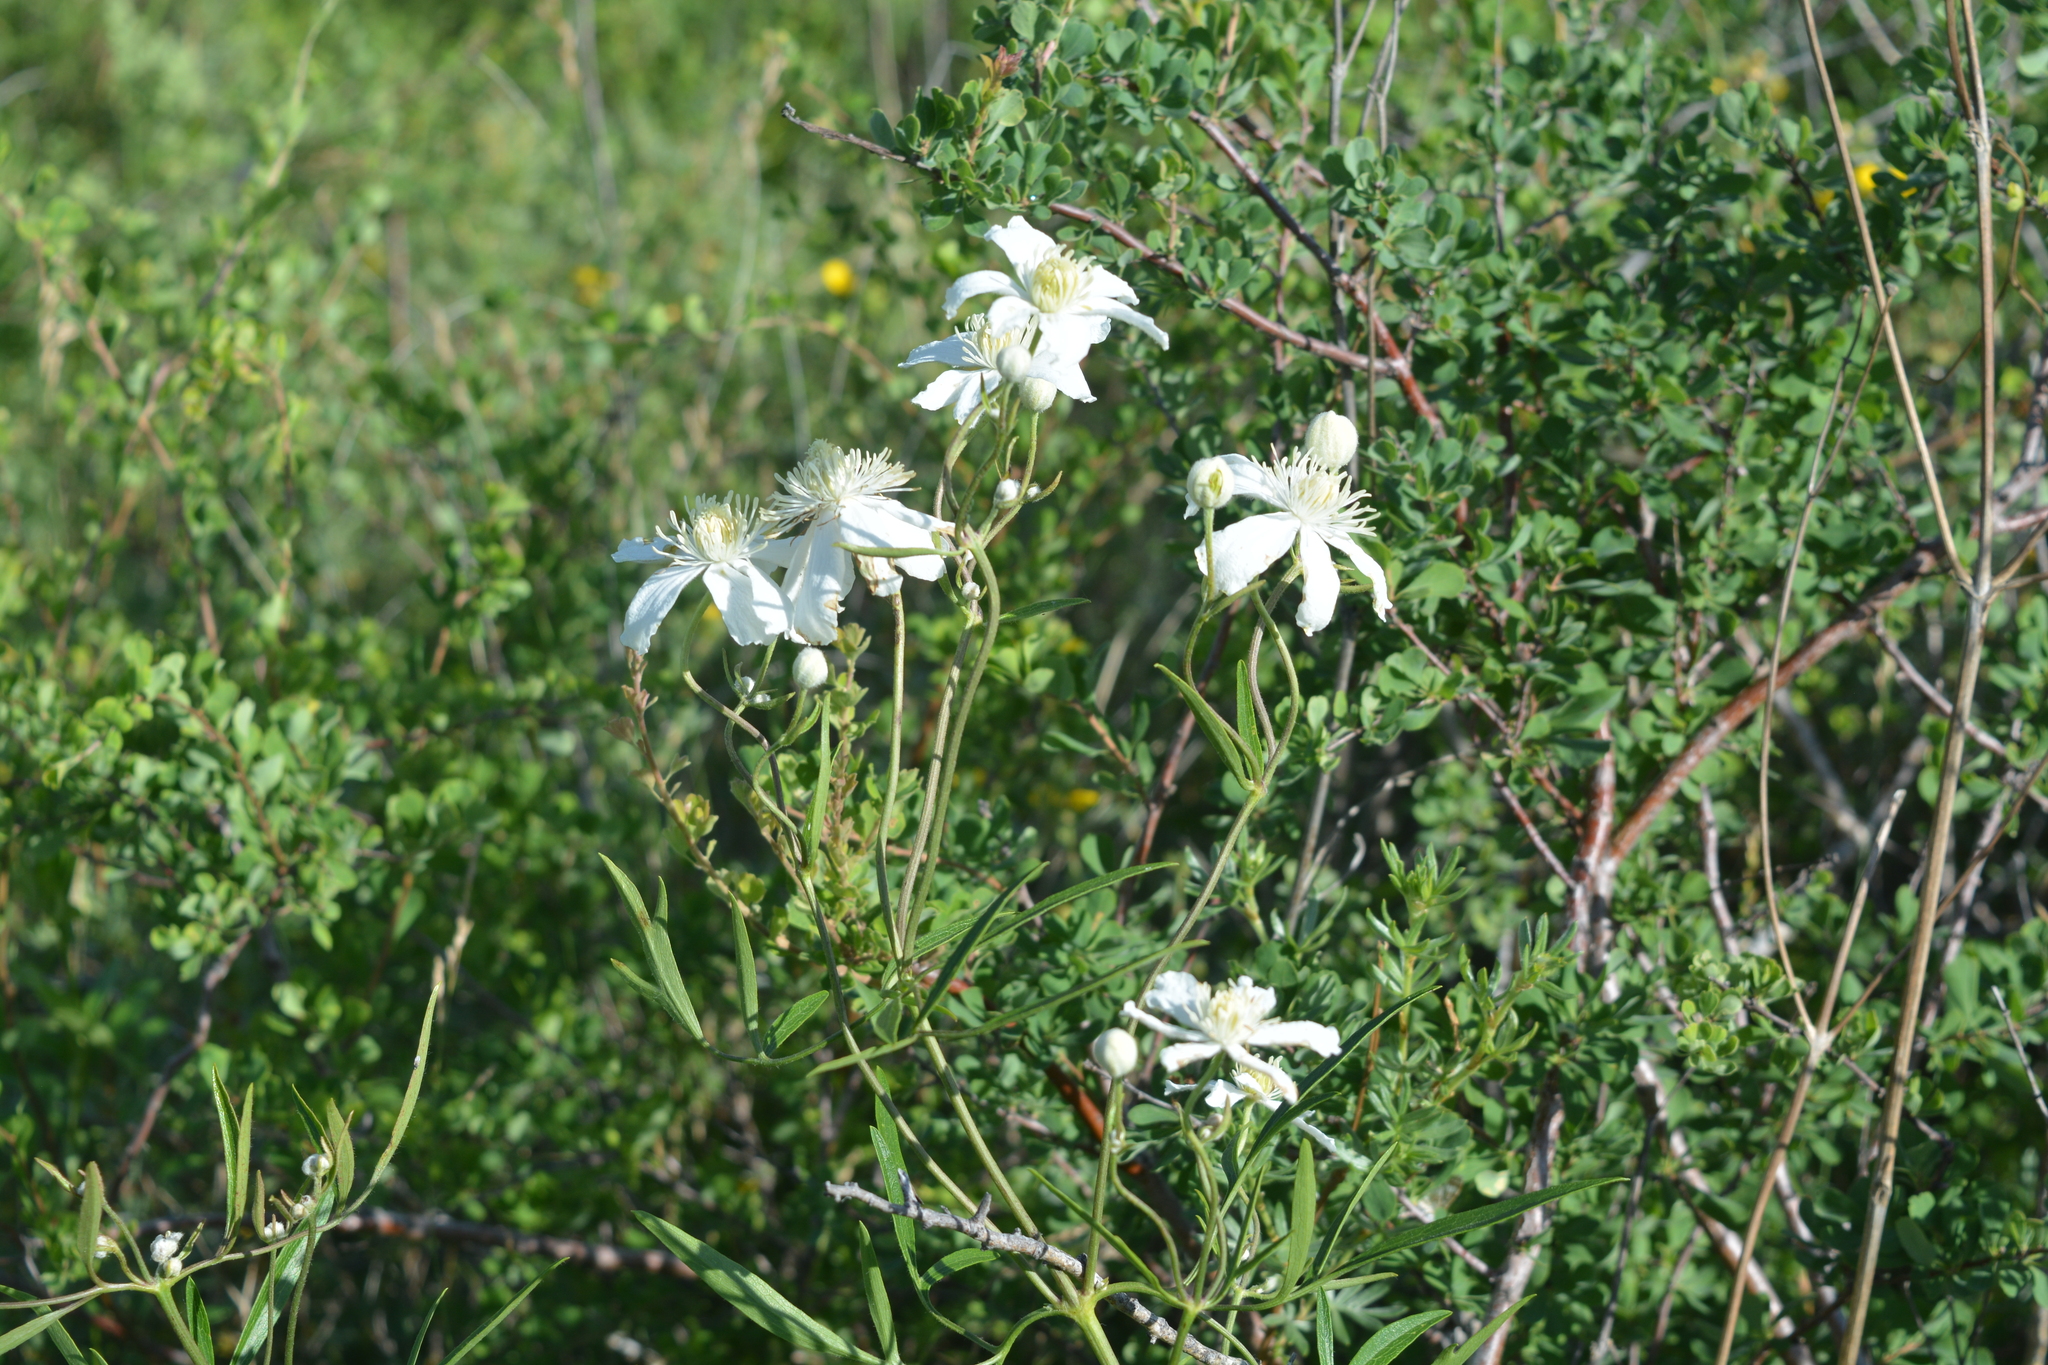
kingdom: Plantae
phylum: Tracheophyta
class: Magnoliopsida
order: Ranunculales
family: Ranunculaceae
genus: Clematis
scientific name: Clematis hexapetala
